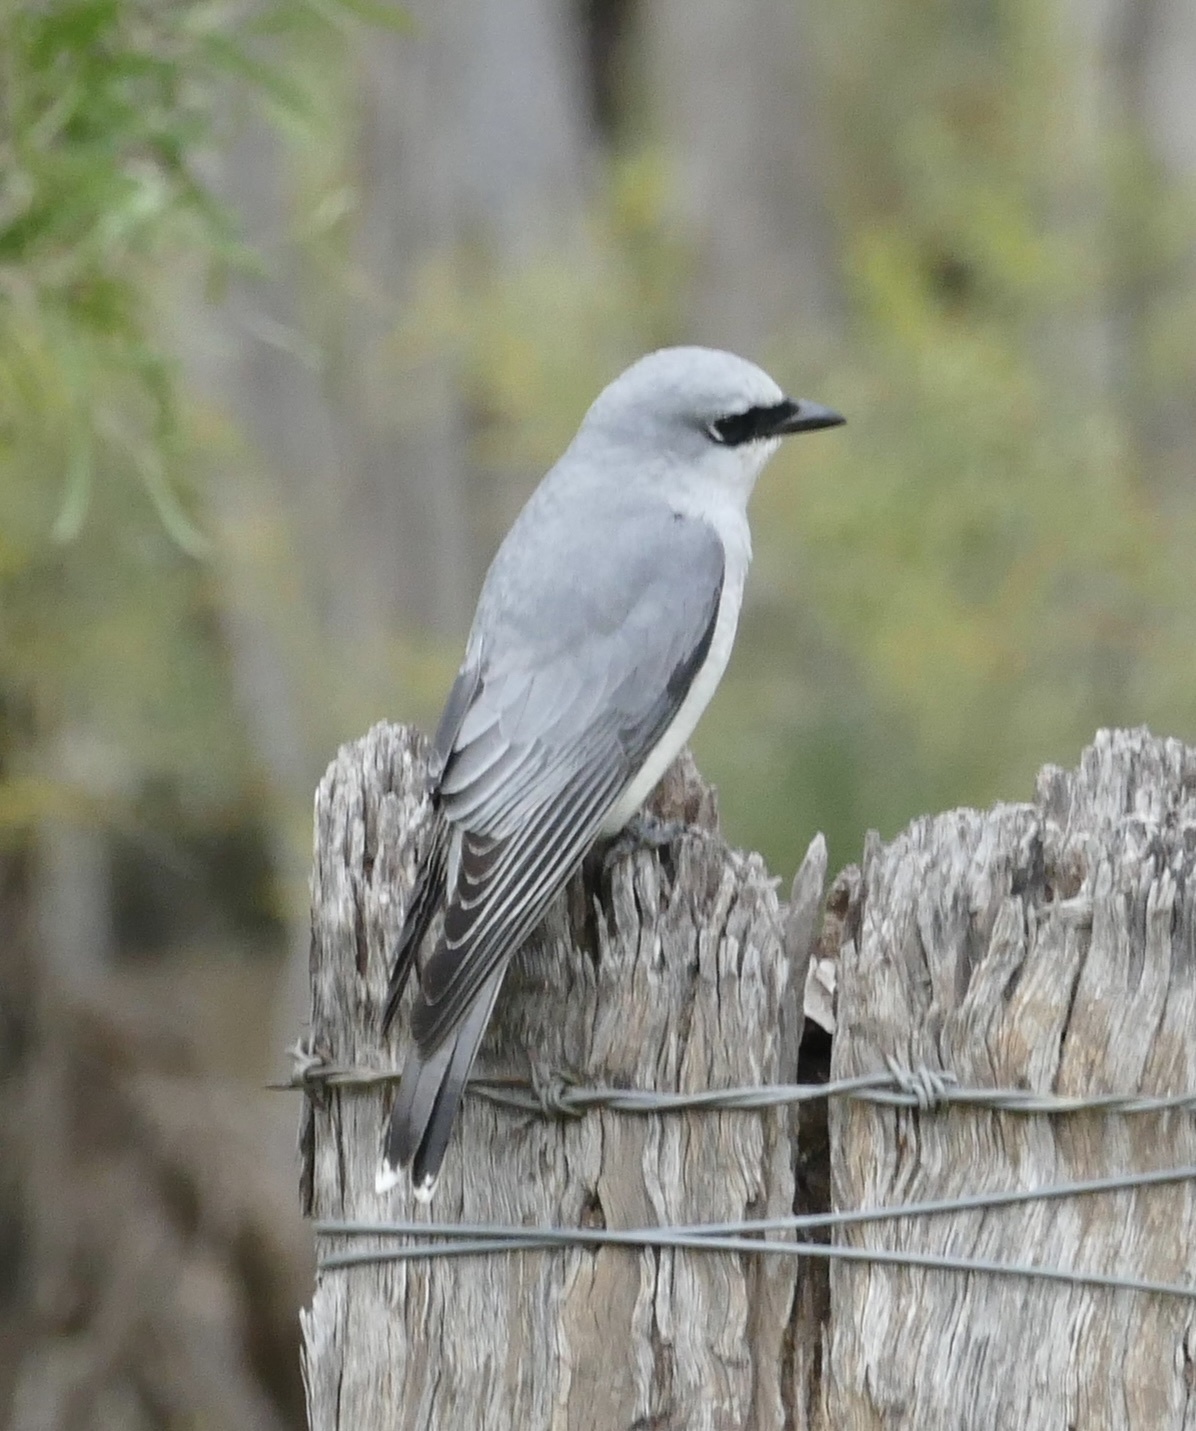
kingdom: Animalia
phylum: Chordata
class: Aves
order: Passeriformes
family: Campephagidae
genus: Coracina
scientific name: Coracina papuensis
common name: White-bellied cuckooshrike
